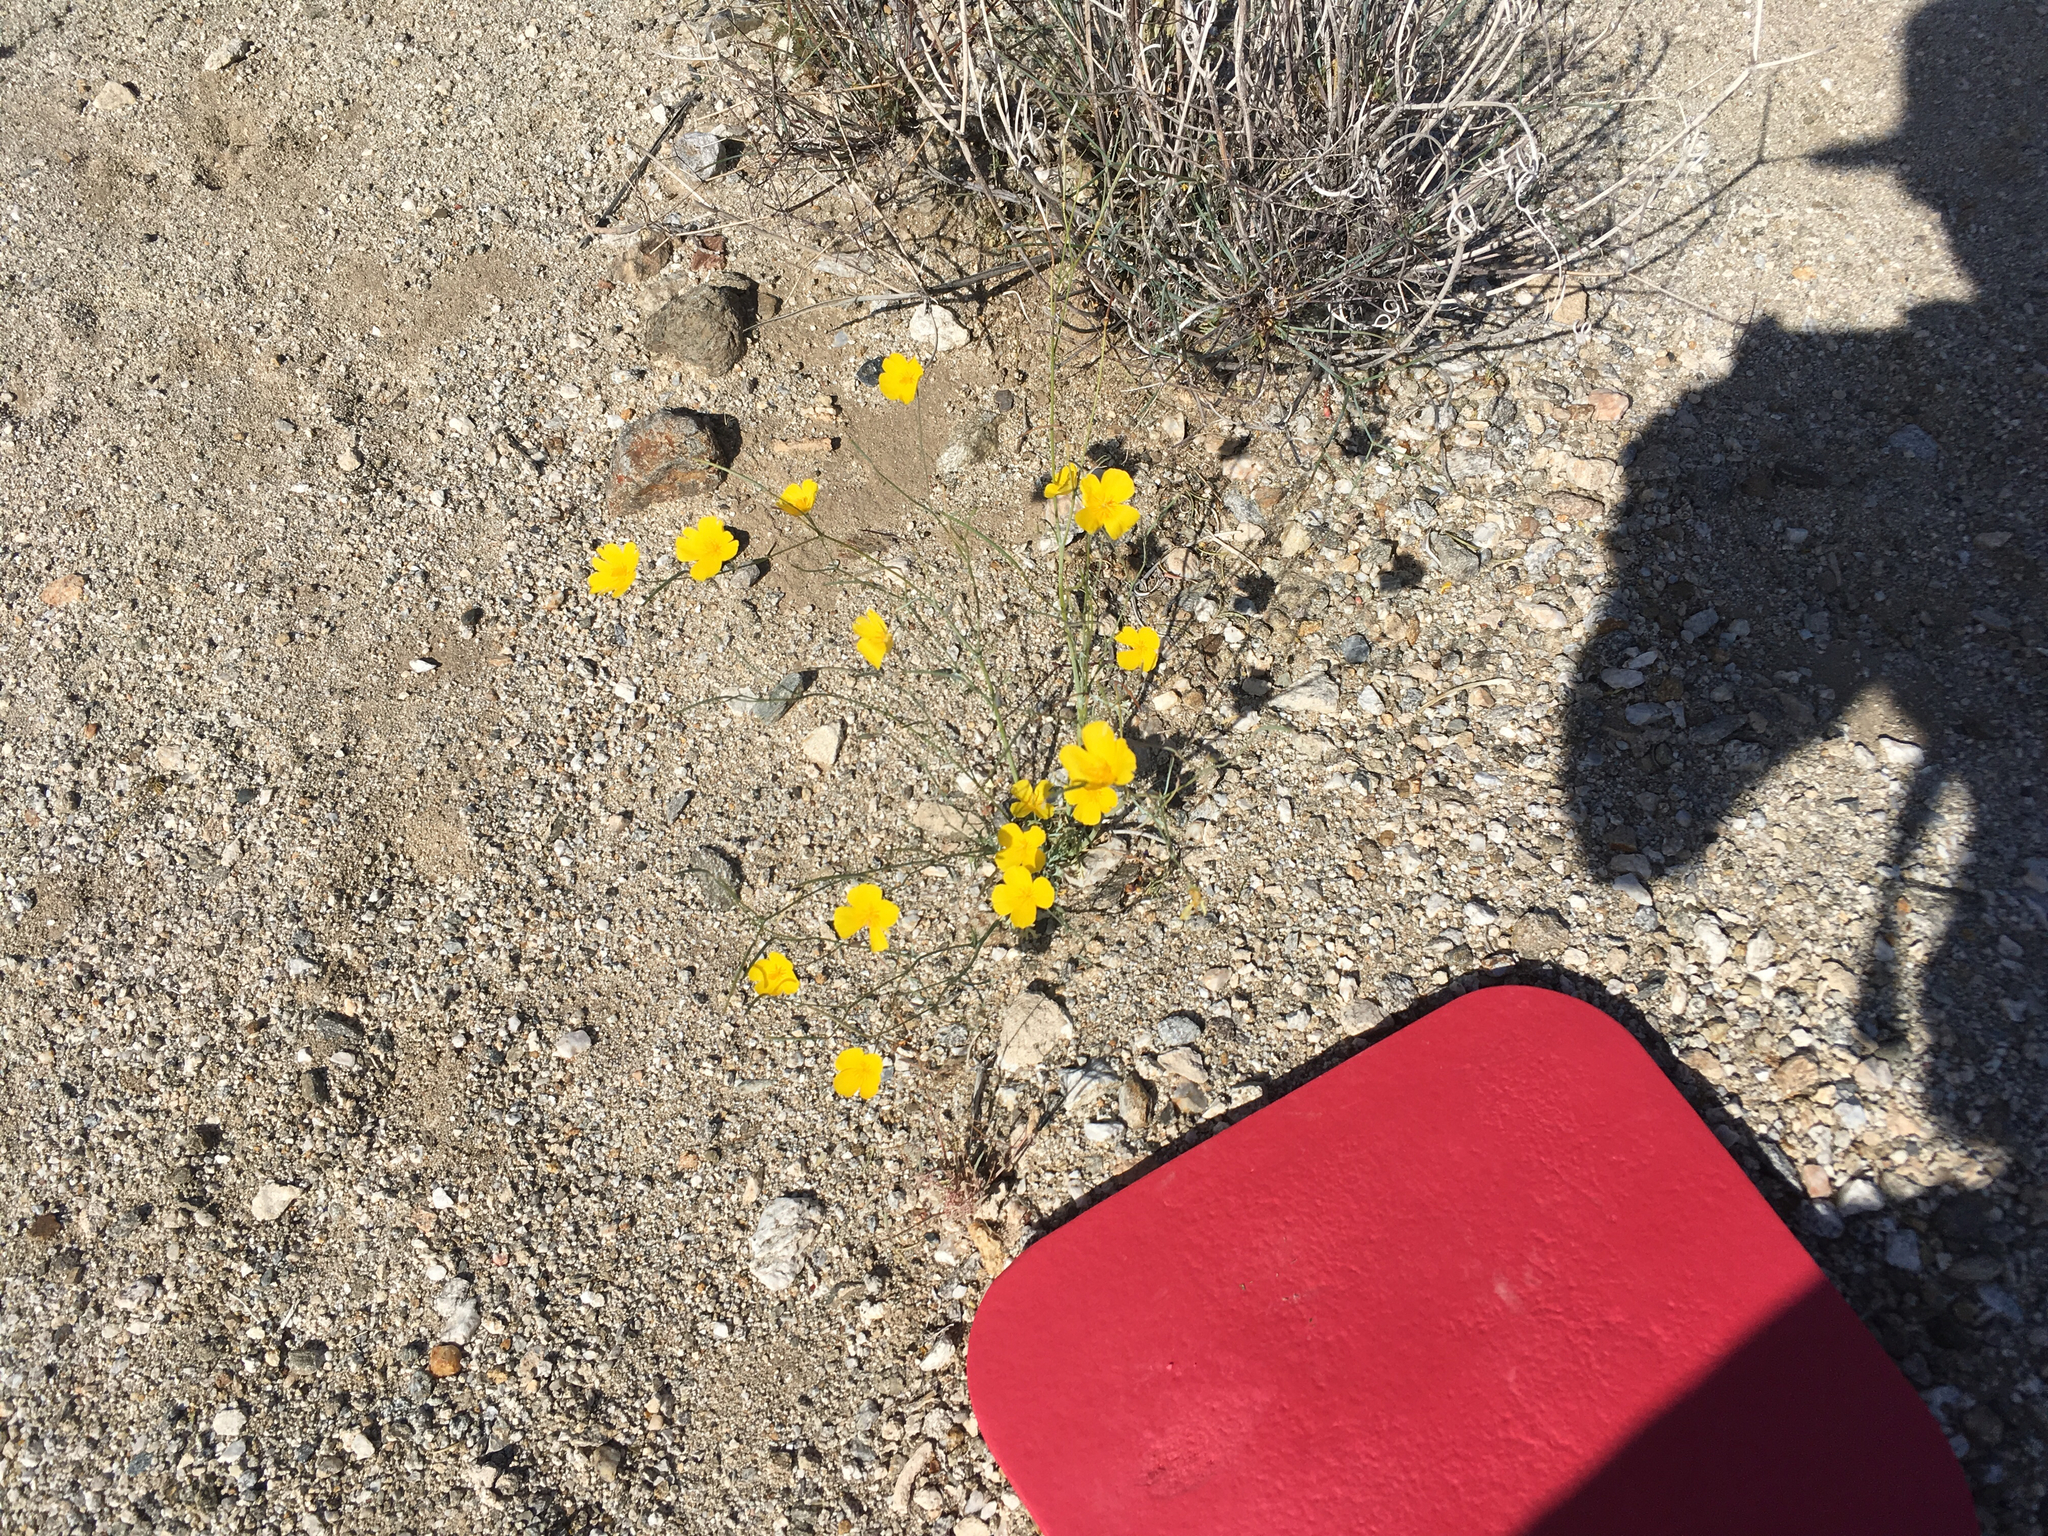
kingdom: Plantae
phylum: Tracheophyta
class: Magnoliopsida
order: Ranunculales
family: Papaveraceae
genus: Eschscholzia
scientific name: Eschscholzia parishii
